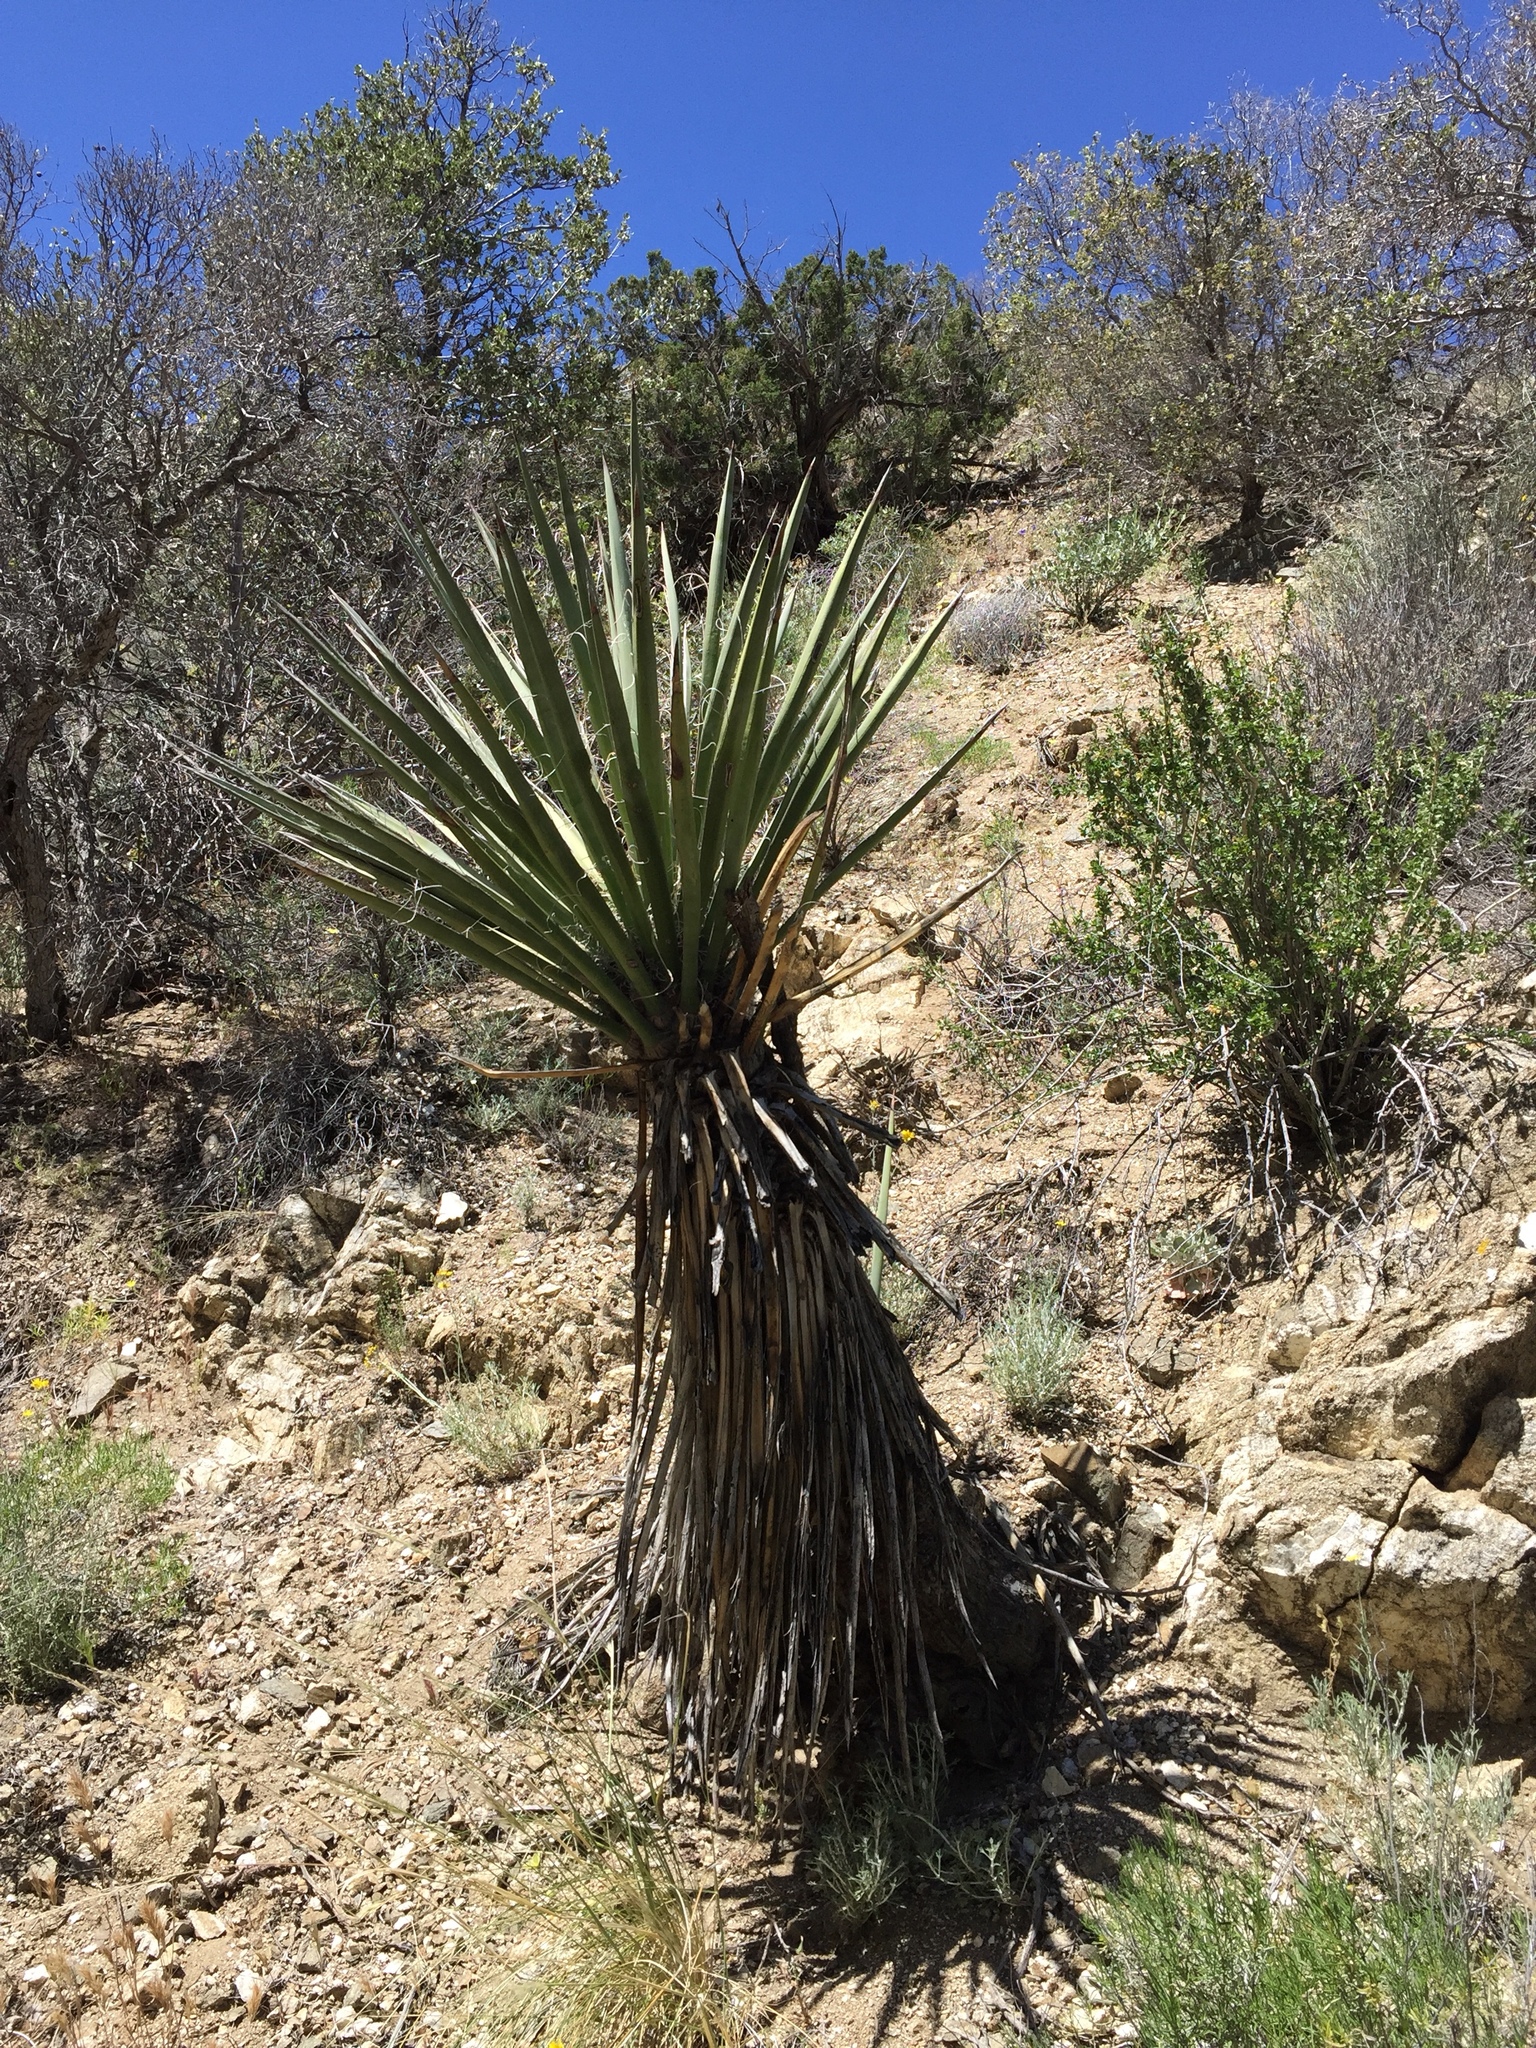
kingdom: Plantae
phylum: Tracheophyta
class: Liliopsida
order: Asparagales
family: Asparagaceae
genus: Yucca
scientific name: Yucca schidigera
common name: Mojave yucca
